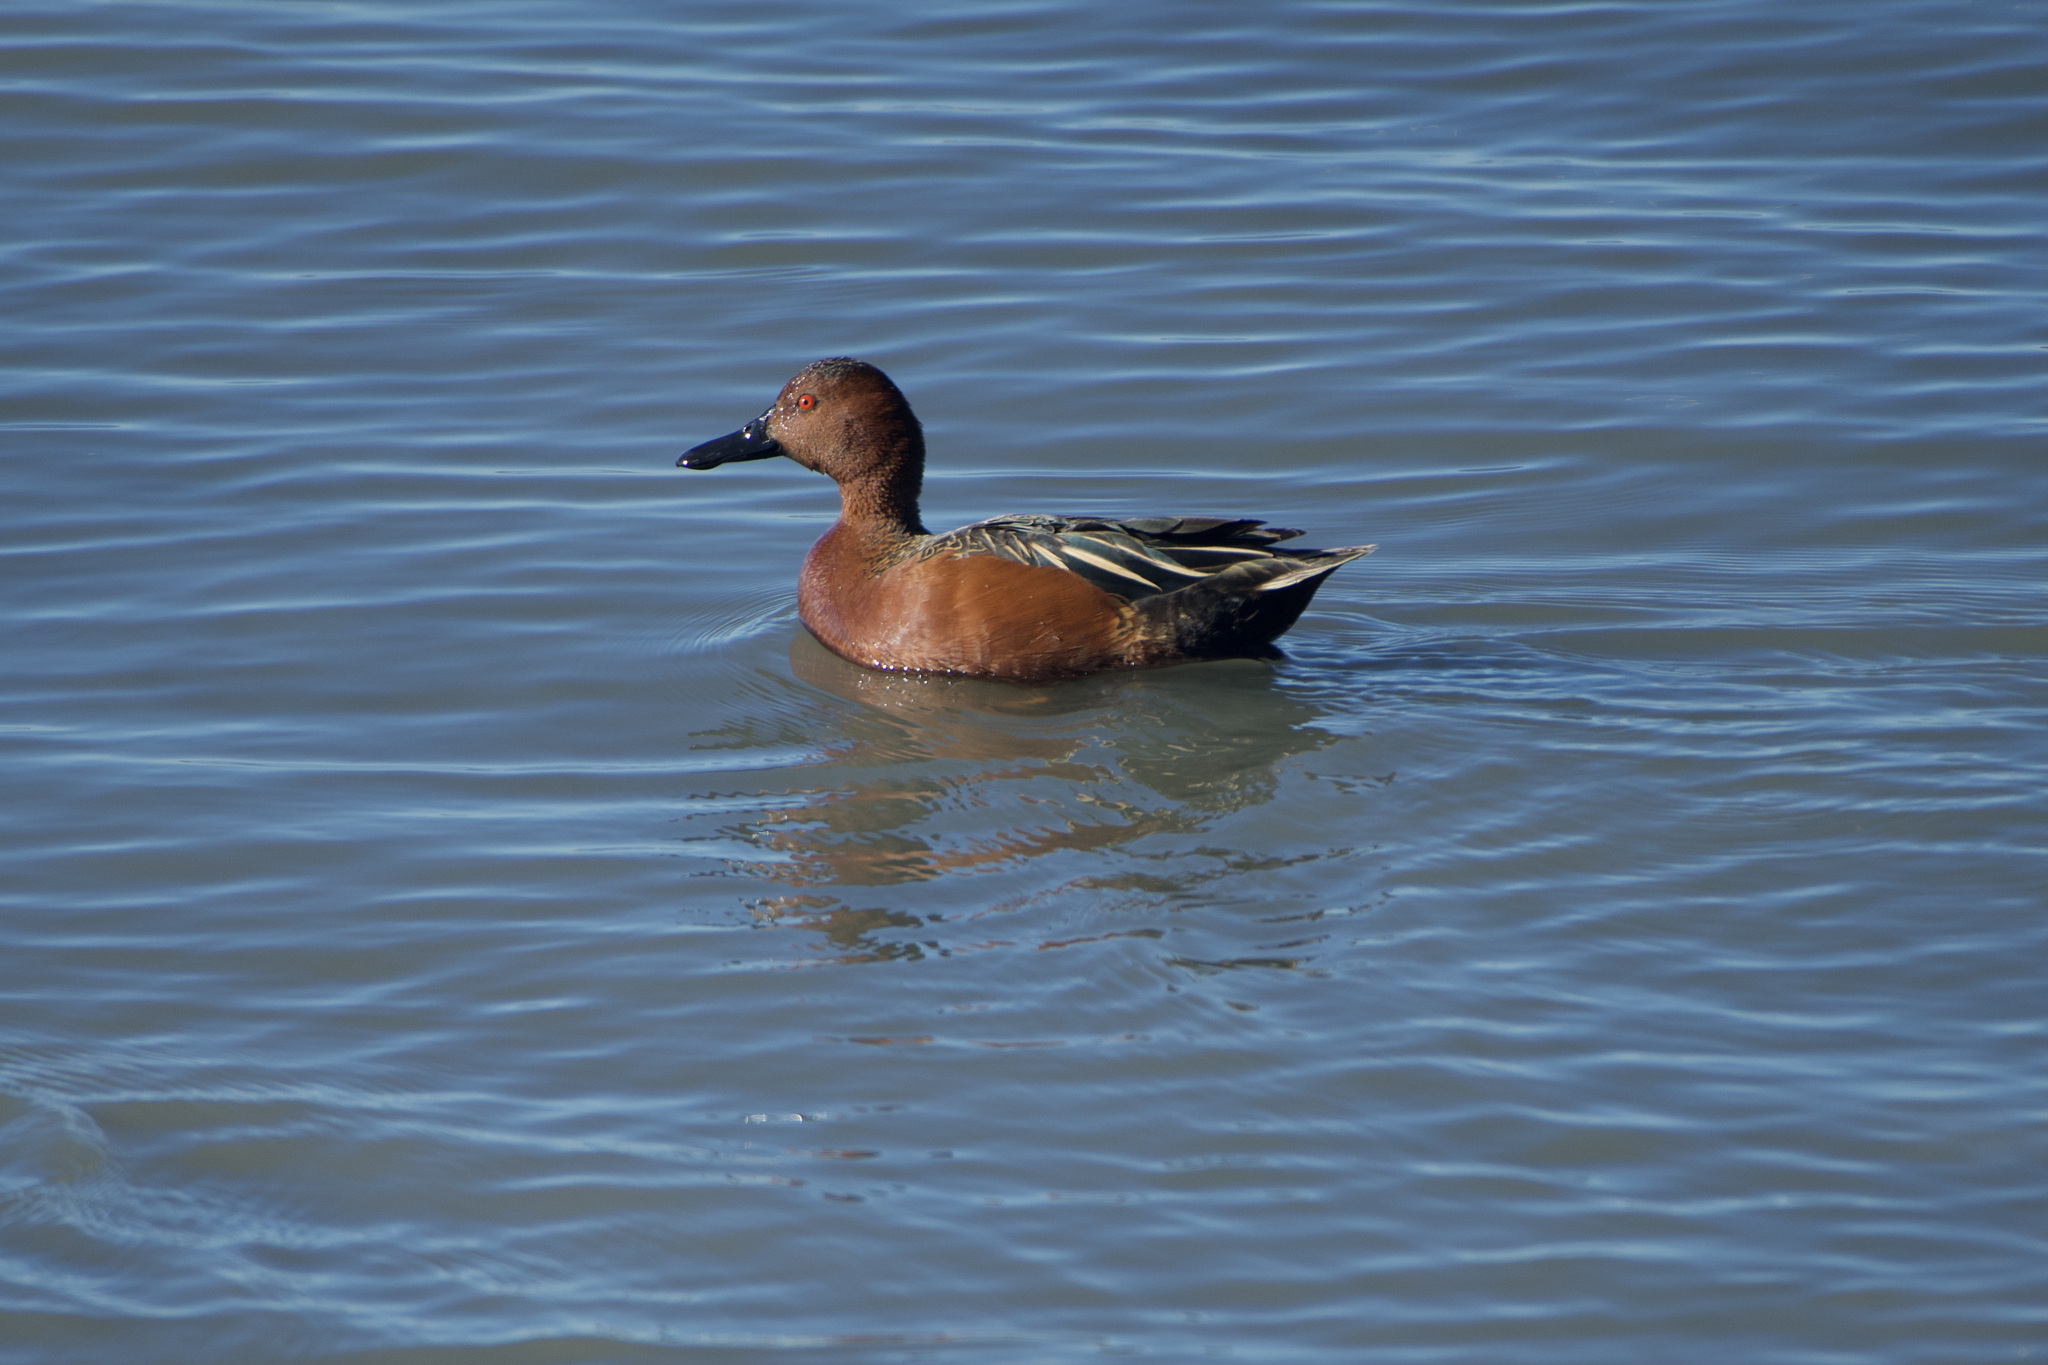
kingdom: Animalia
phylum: Chordata
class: Aves
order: Anseriformes
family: Anatidae
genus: Spatula
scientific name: Spatula cyanoptera
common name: Cinnamon teal
